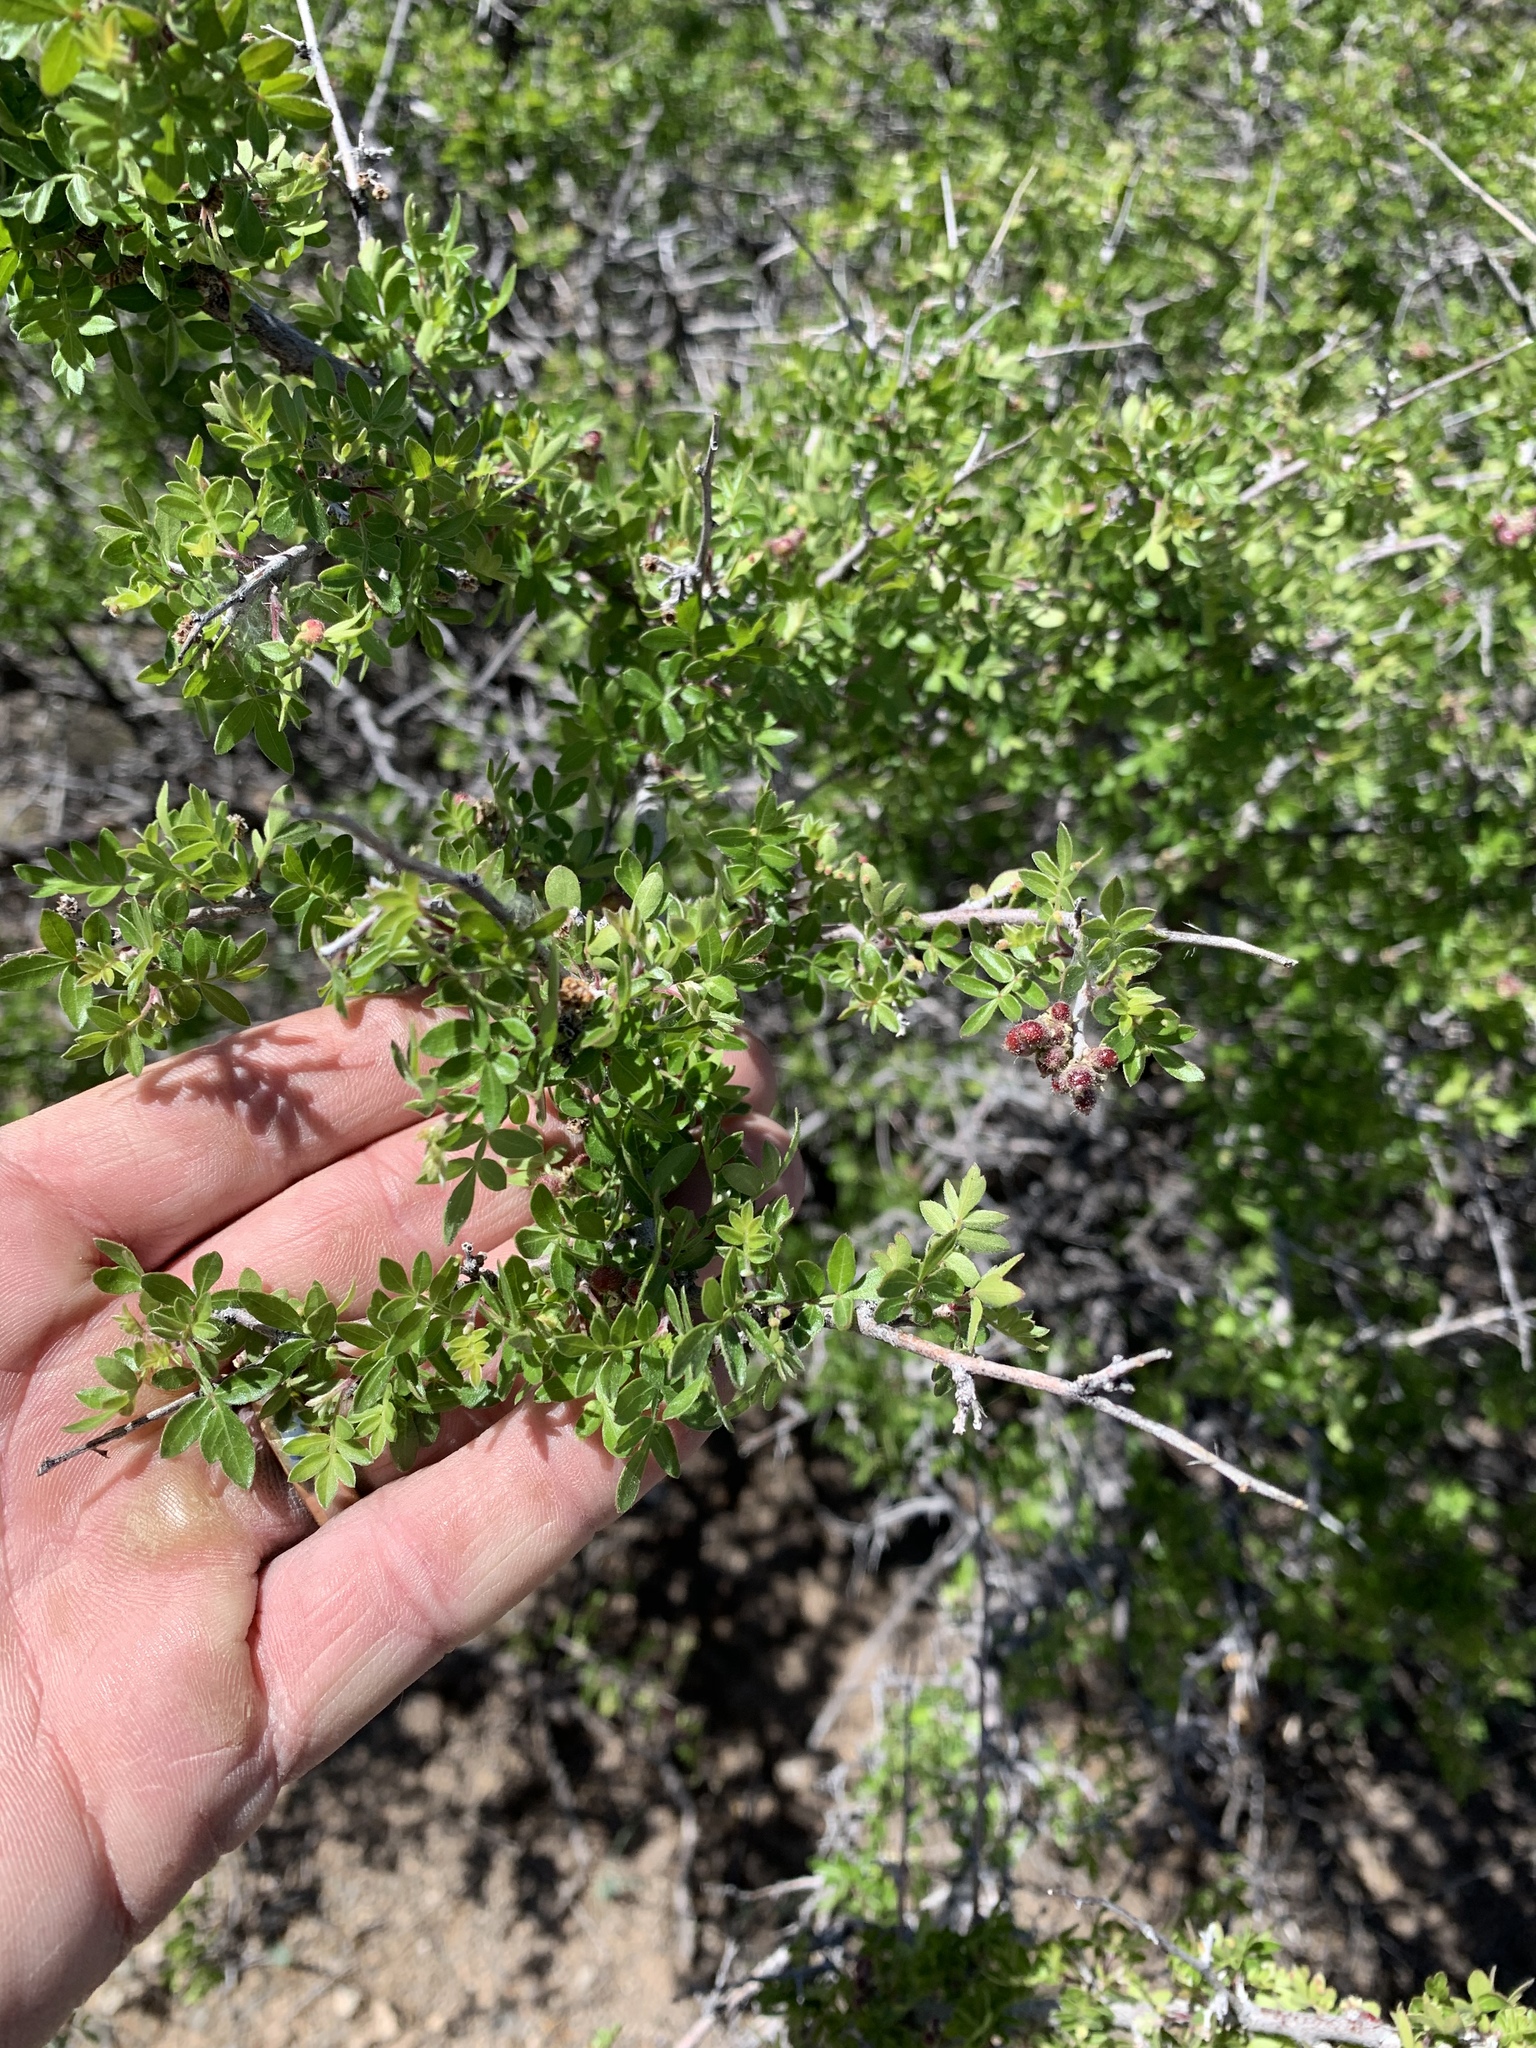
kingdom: Plantae
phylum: Tracheophyta
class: Magnoliopsida
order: Rosales
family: Rosaceae
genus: Cercocarpus
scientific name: Cercocarpus breviflorus
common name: Wright's mountain-mahogany
